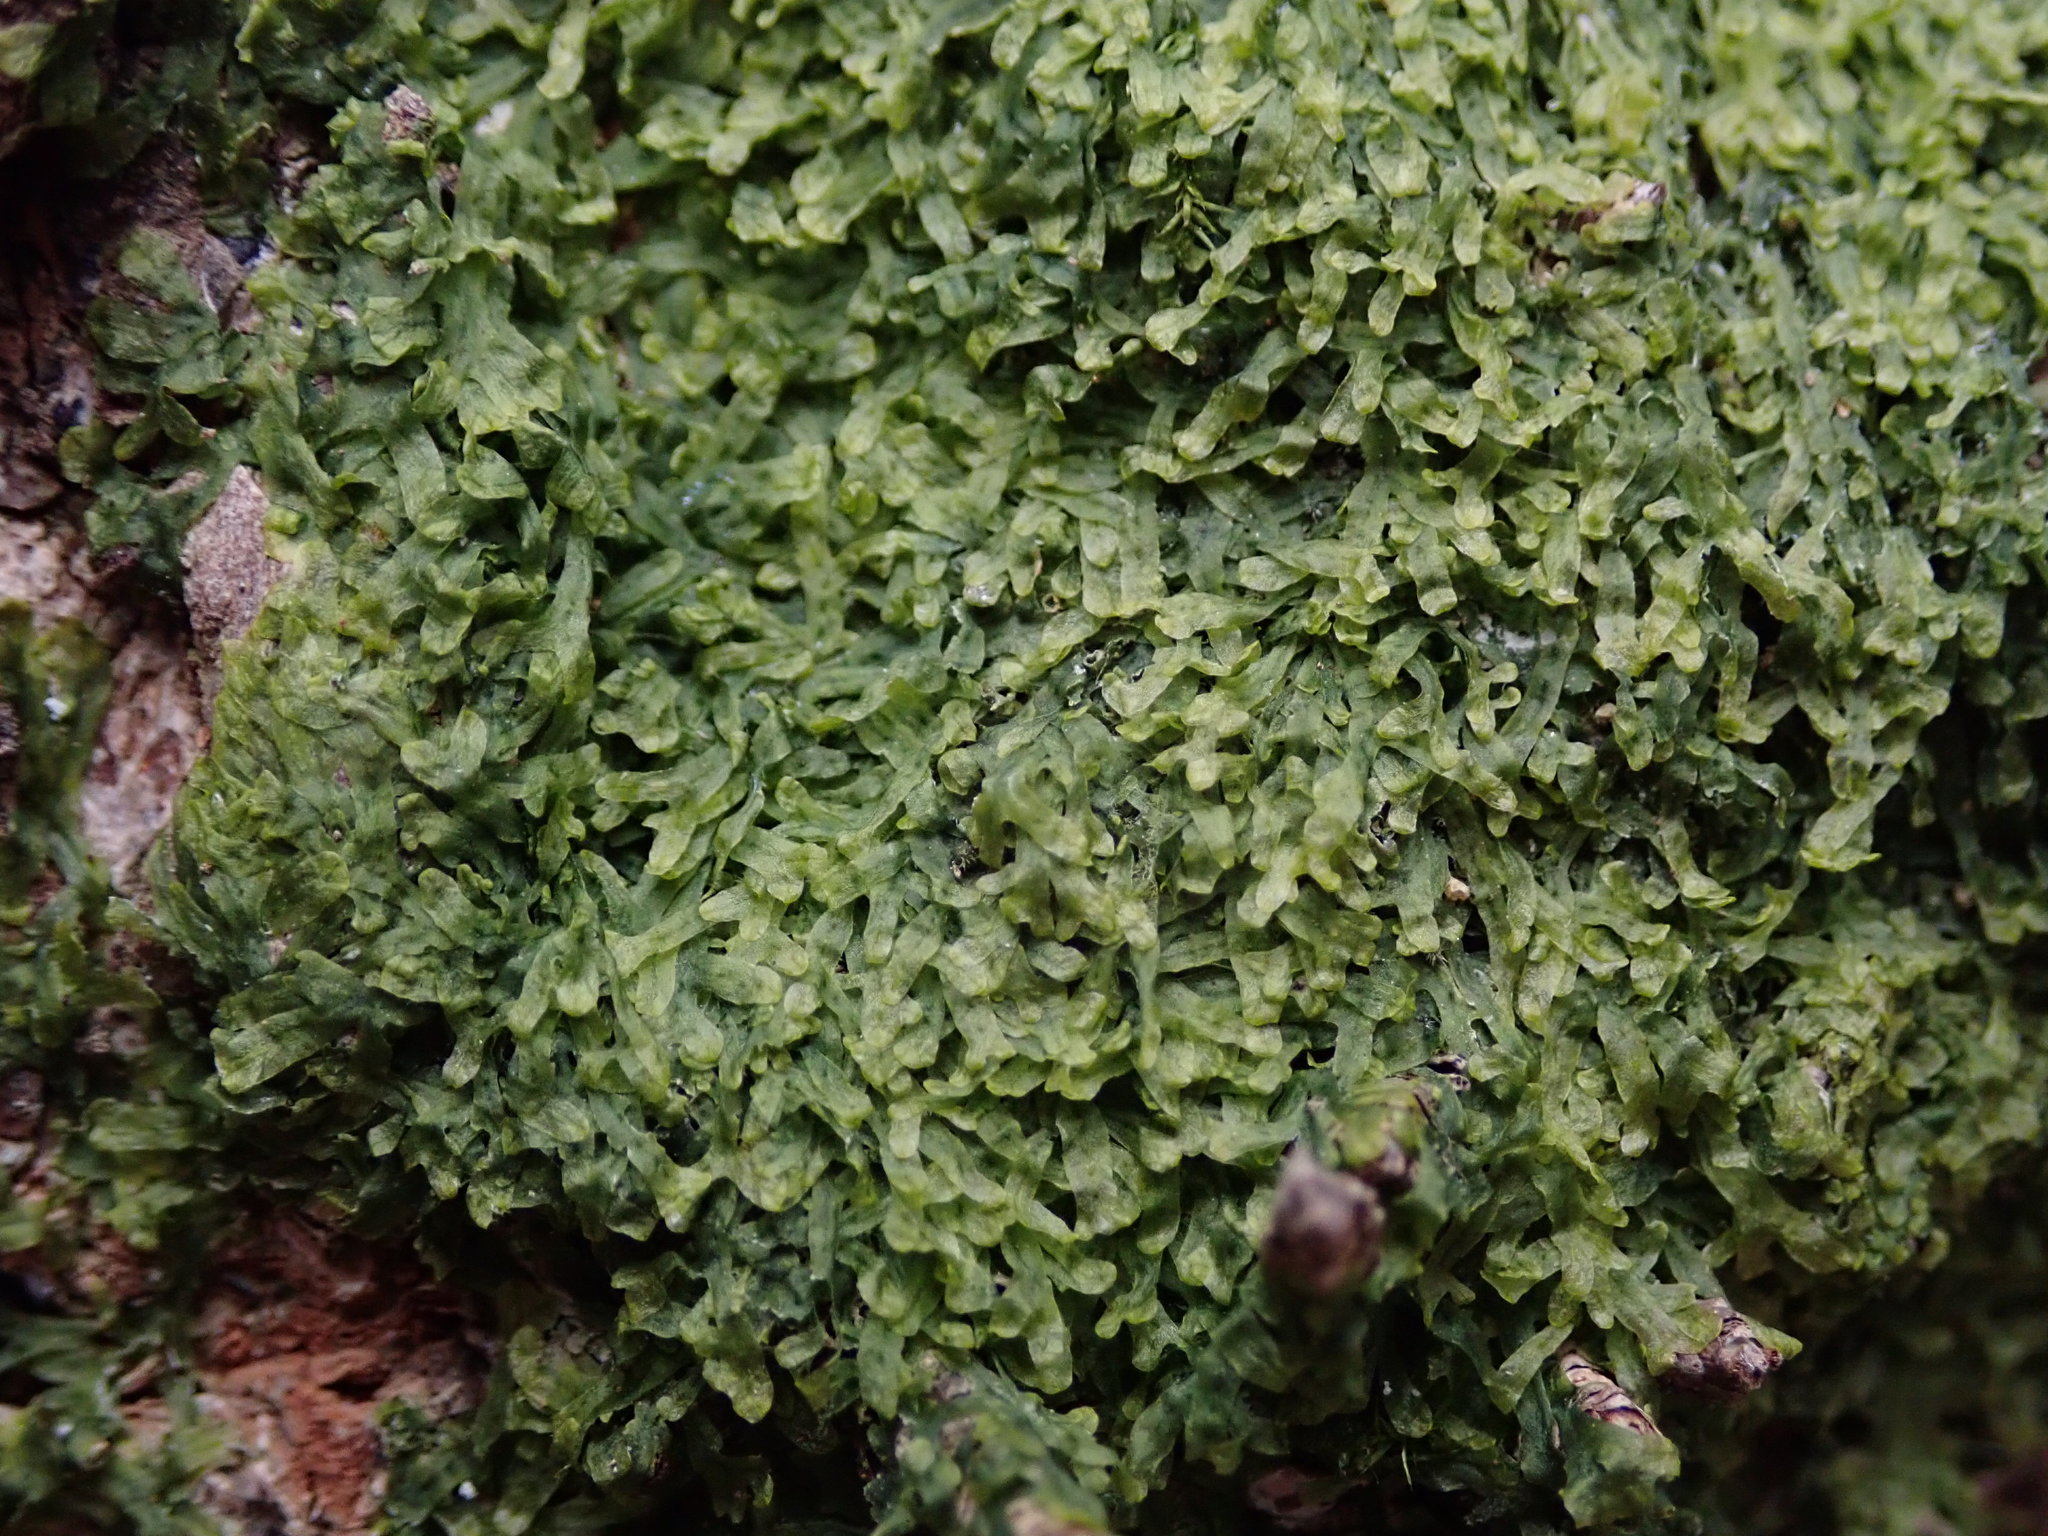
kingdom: Plantae
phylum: Marchantiophyta
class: Jungermanniopsida
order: Metzgeriales
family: Metzgeriaceae
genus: Metzgeria
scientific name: Metzgeria furcata
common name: Forked veilwort
